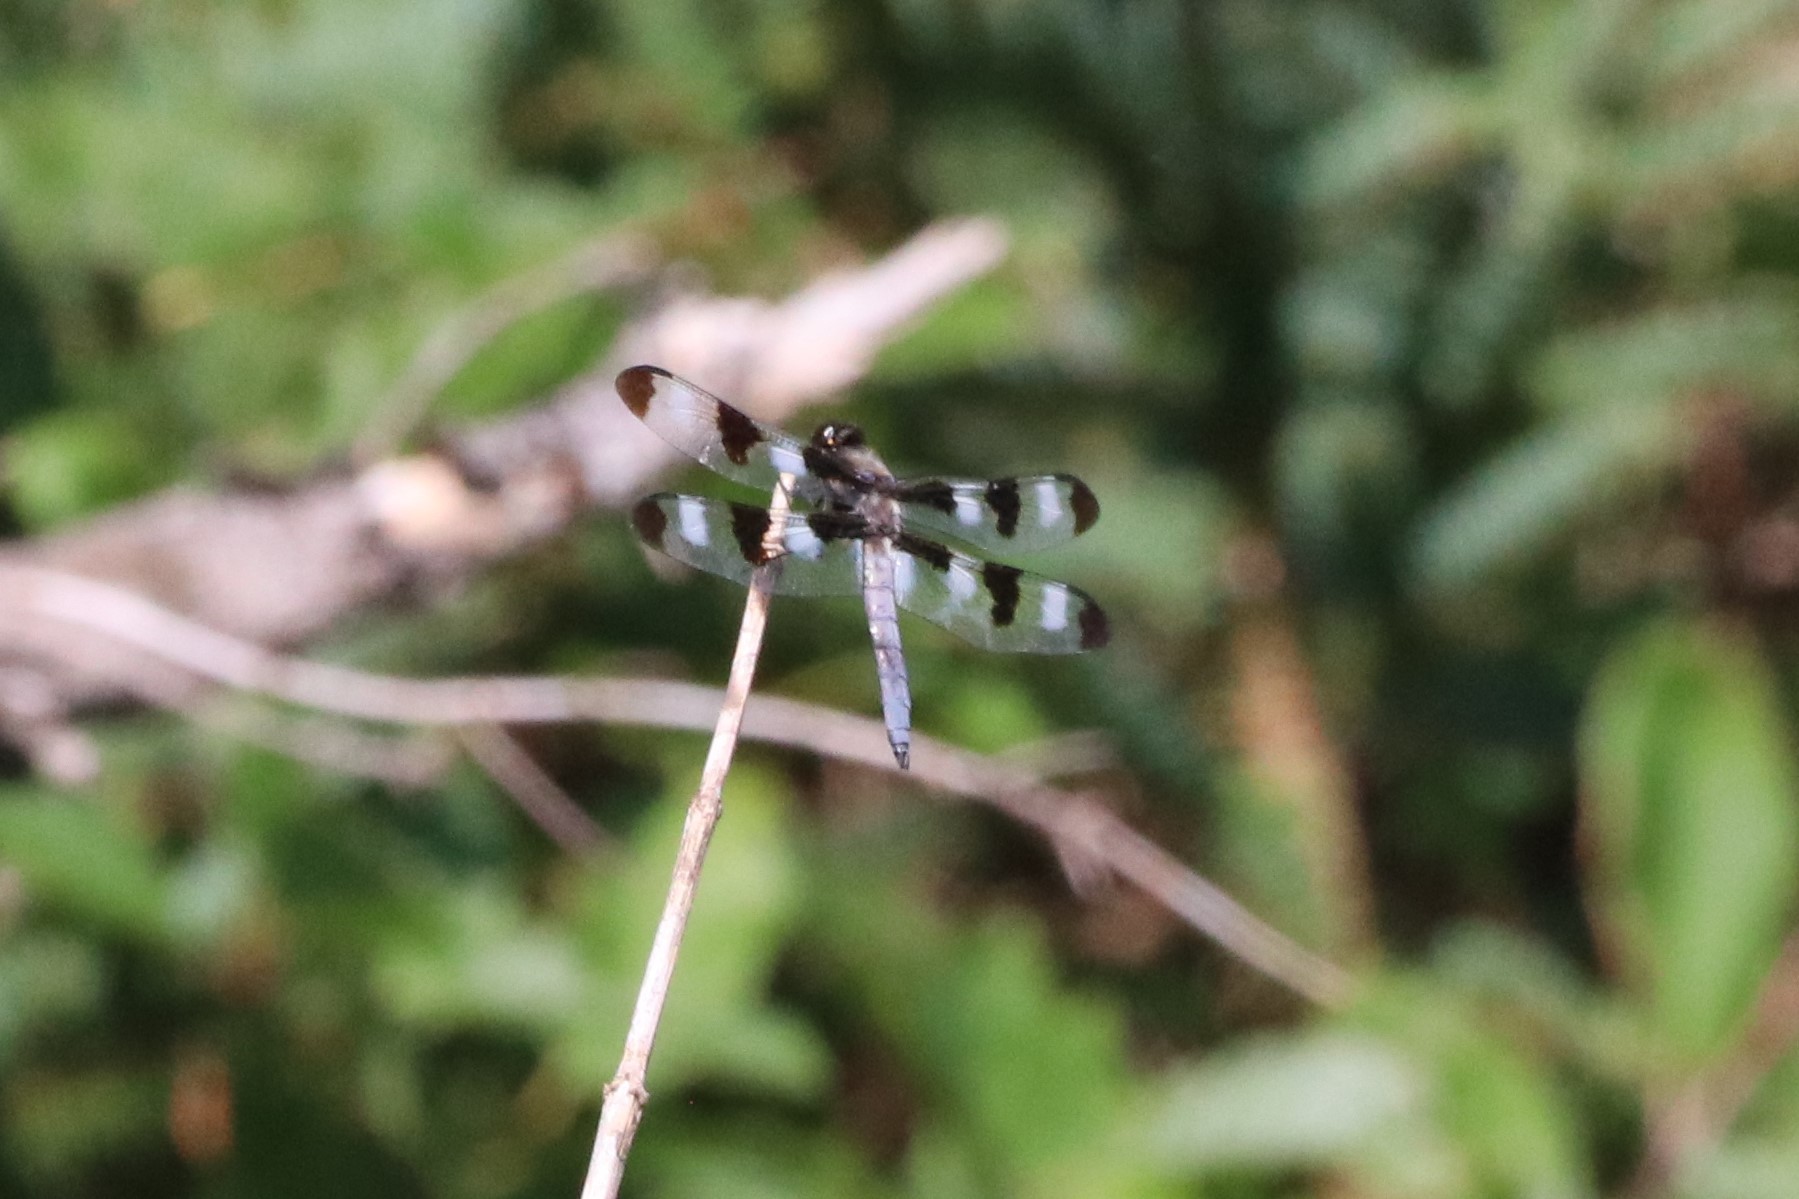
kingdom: Animalia
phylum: Arthropoda
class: Insecta
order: Odonata
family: Libellulidae
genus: Libellula
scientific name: Libellula pulchella
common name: Twelve-spotted skimmer
